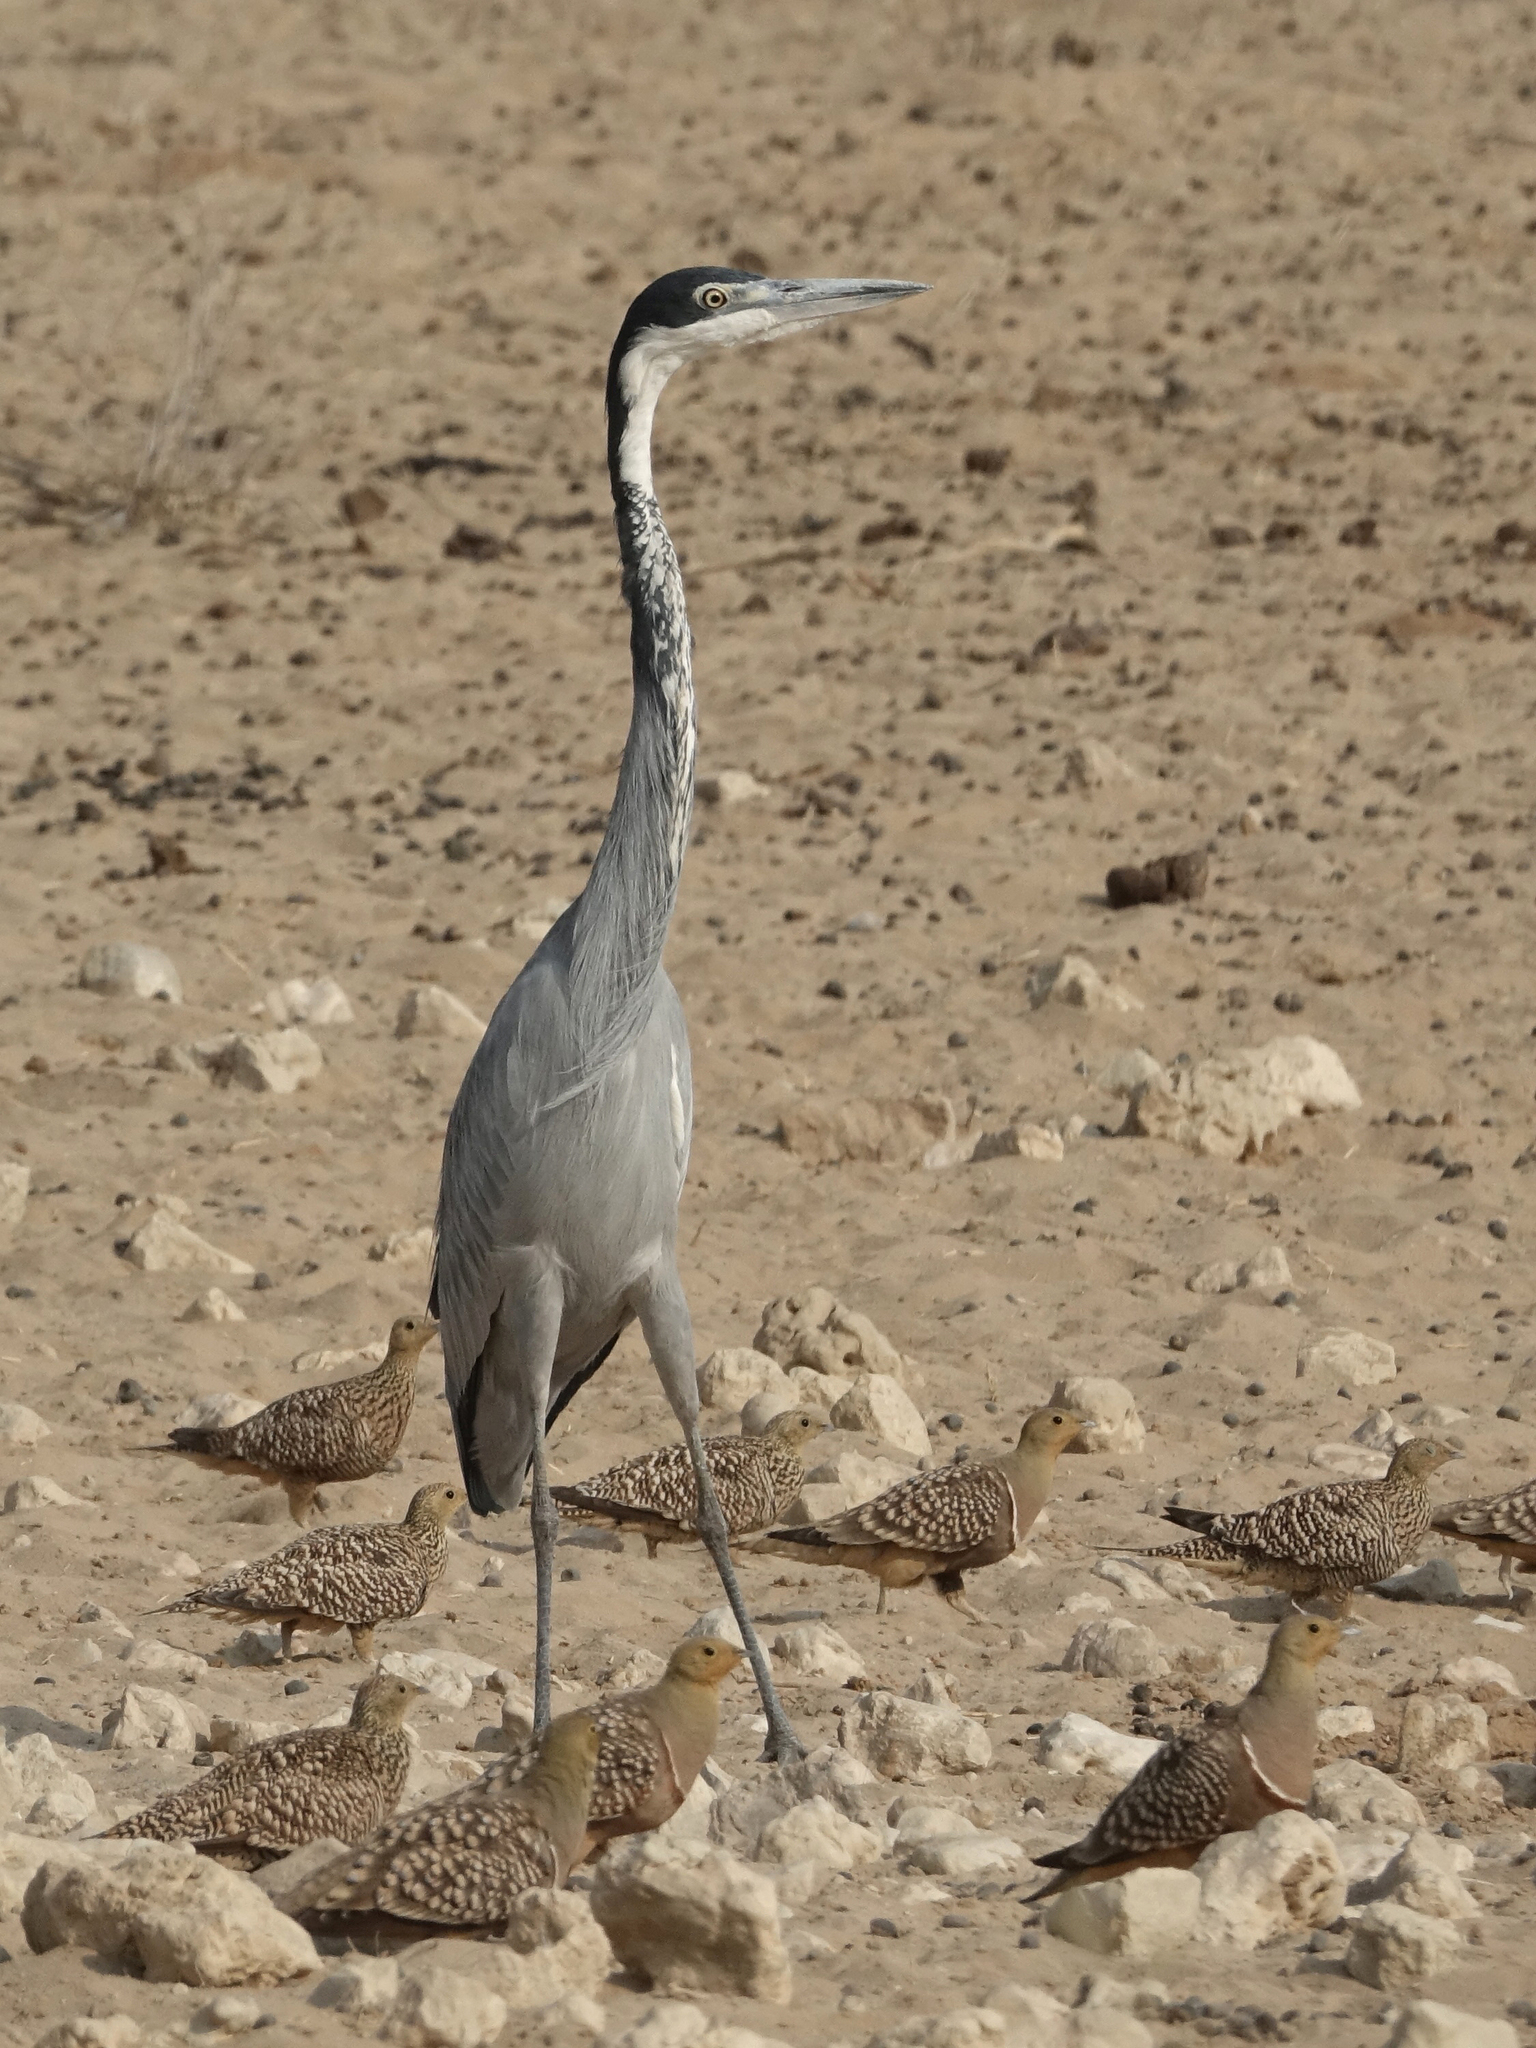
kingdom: Animalia
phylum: Chordata
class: Aves
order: Pelecaniformes
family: Ardeidae
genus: Ardea
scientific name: Ardea melanocephala
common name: Black-headed heron
